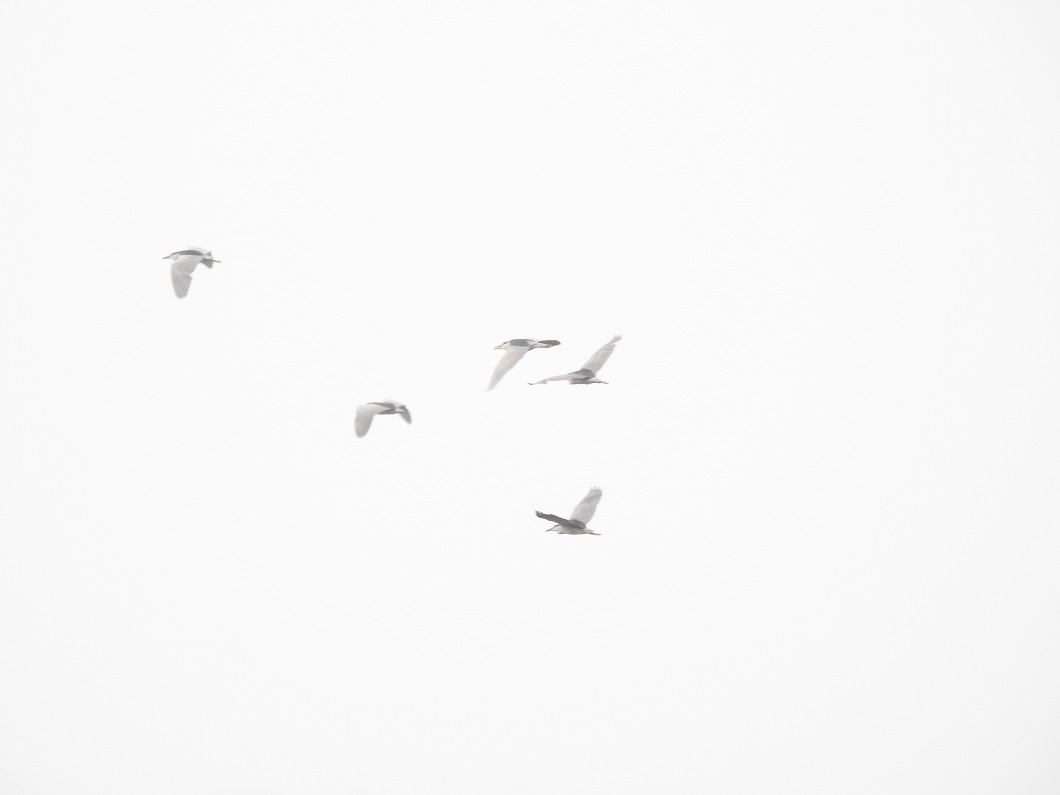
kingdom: Animalia
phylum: Chordata
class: Aves
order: Pelecaniformes
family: Ardeidae
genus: Nycticorax
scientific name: Nycticorax nycticorax
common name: Black-crowned night heron
